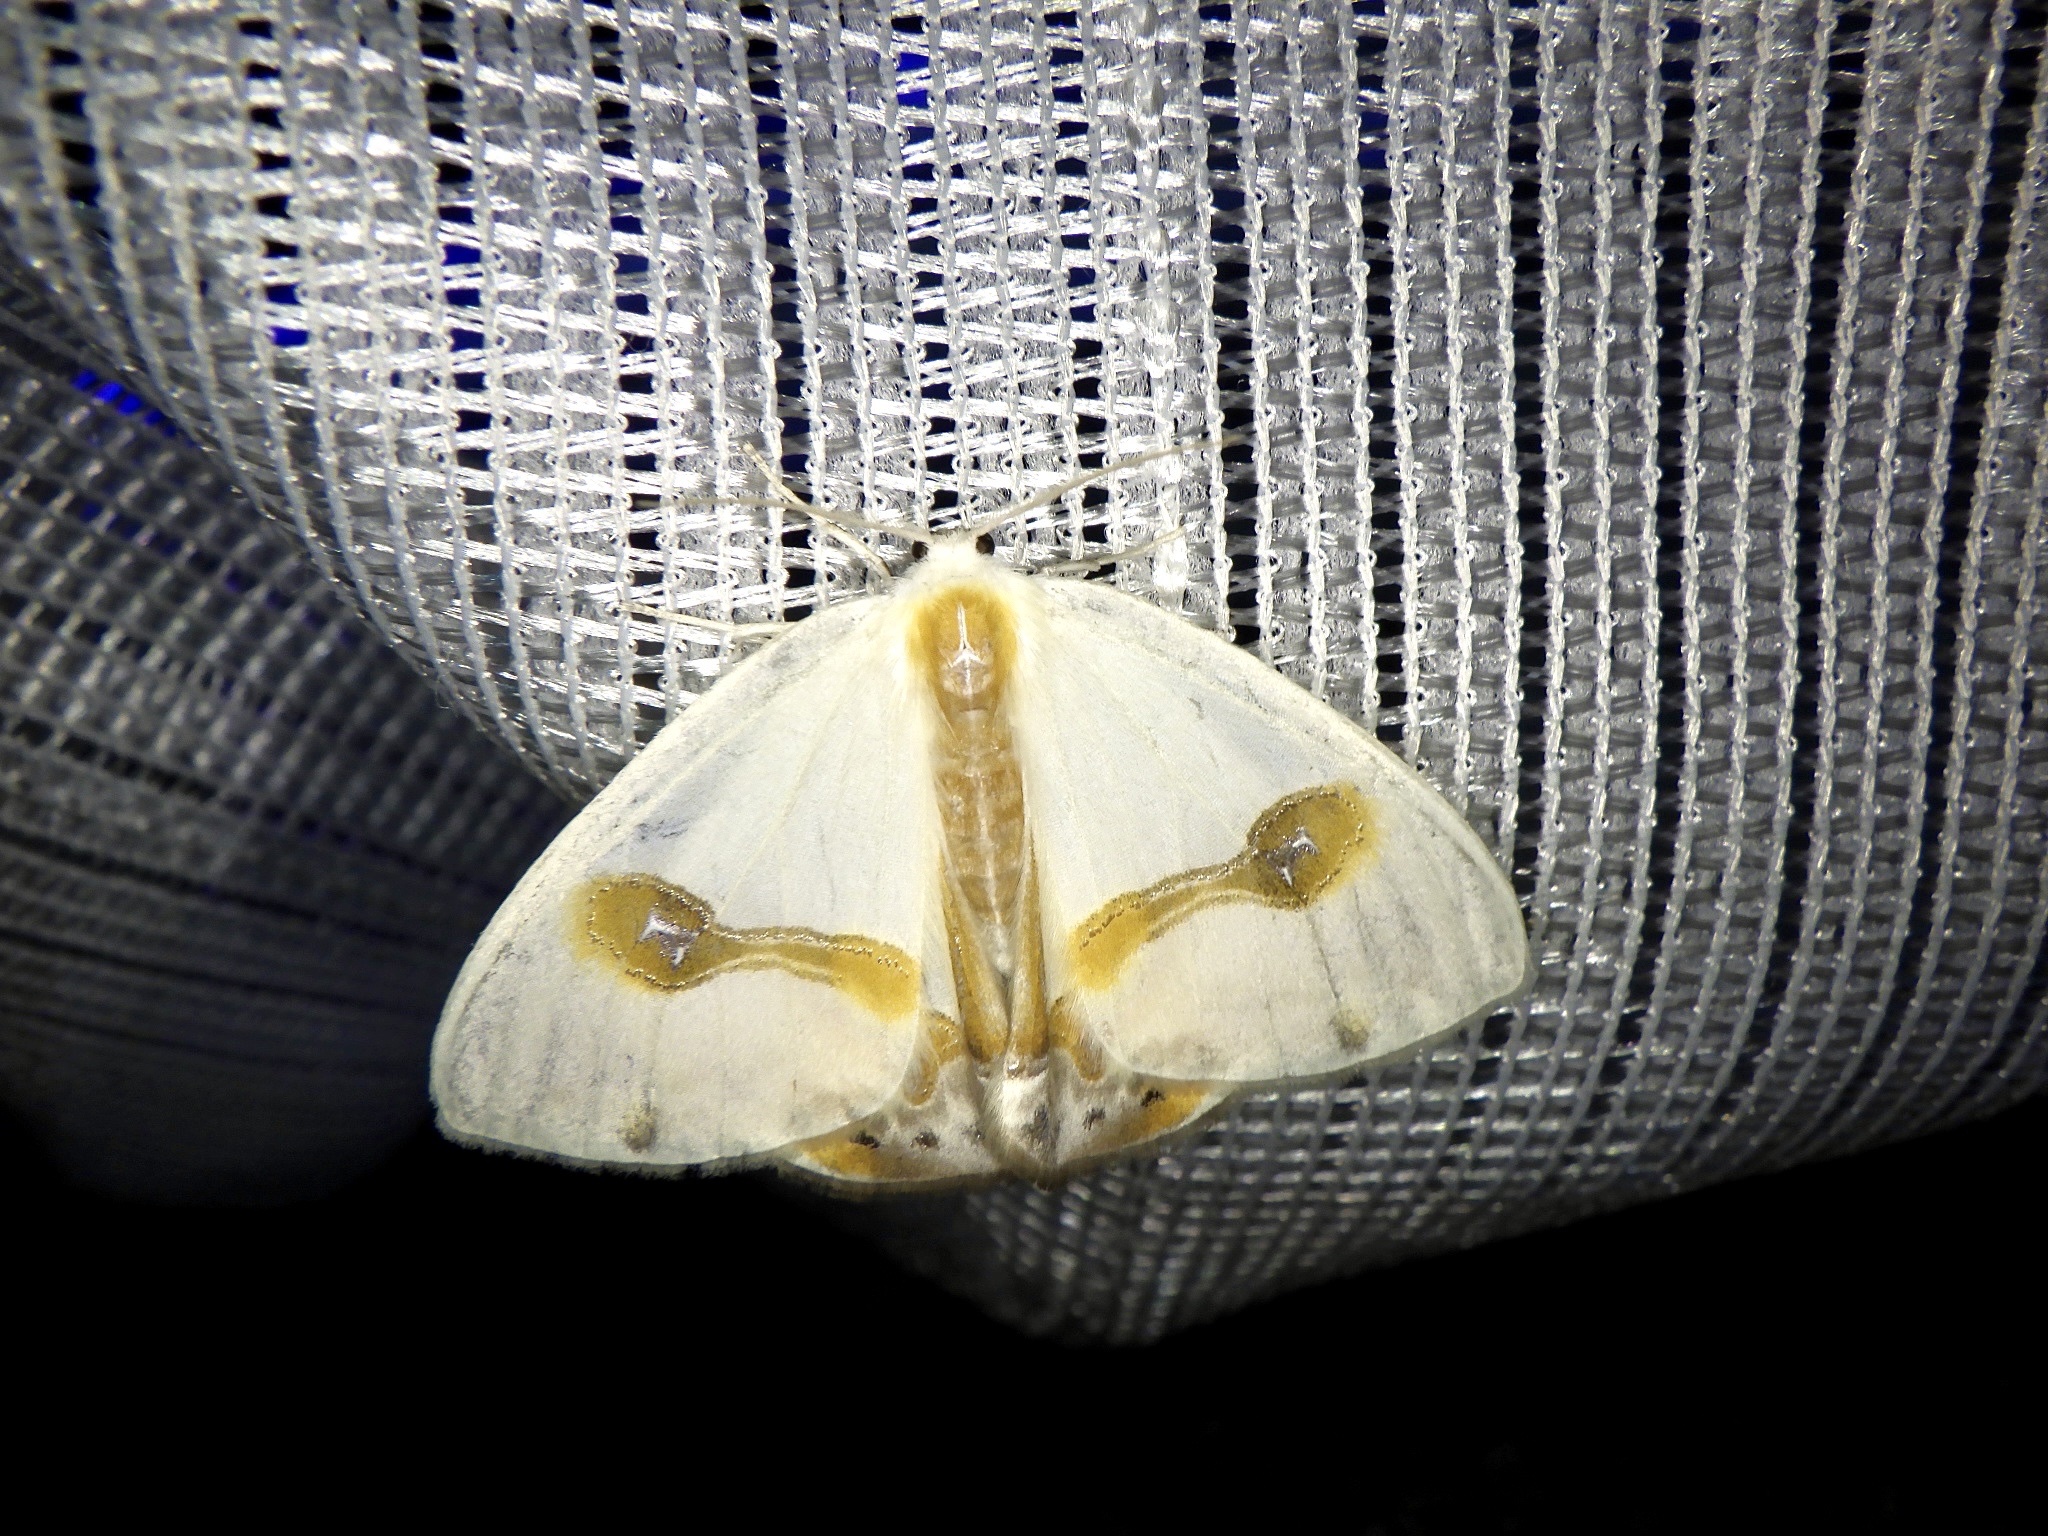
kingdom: Animalia
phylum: Arthropoda
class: Insecta
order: Lepidoptera
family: Drepanidae
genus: Macrocilix
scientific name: Macrocilix mysticata
